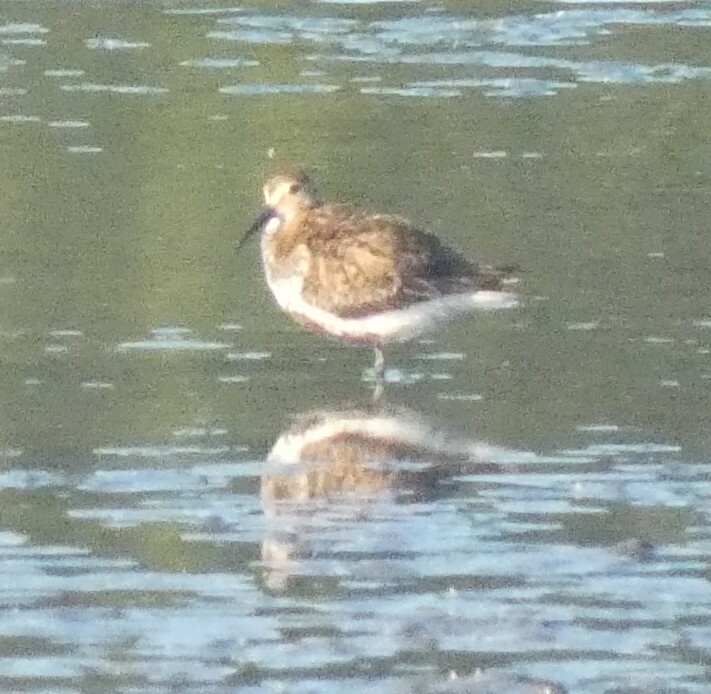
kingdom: Animalia
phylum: Chordata
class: Aves
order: Charadriiformes
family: Scolopacidae
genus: Calidris
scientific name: Calidris alpina
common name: Dunlin
